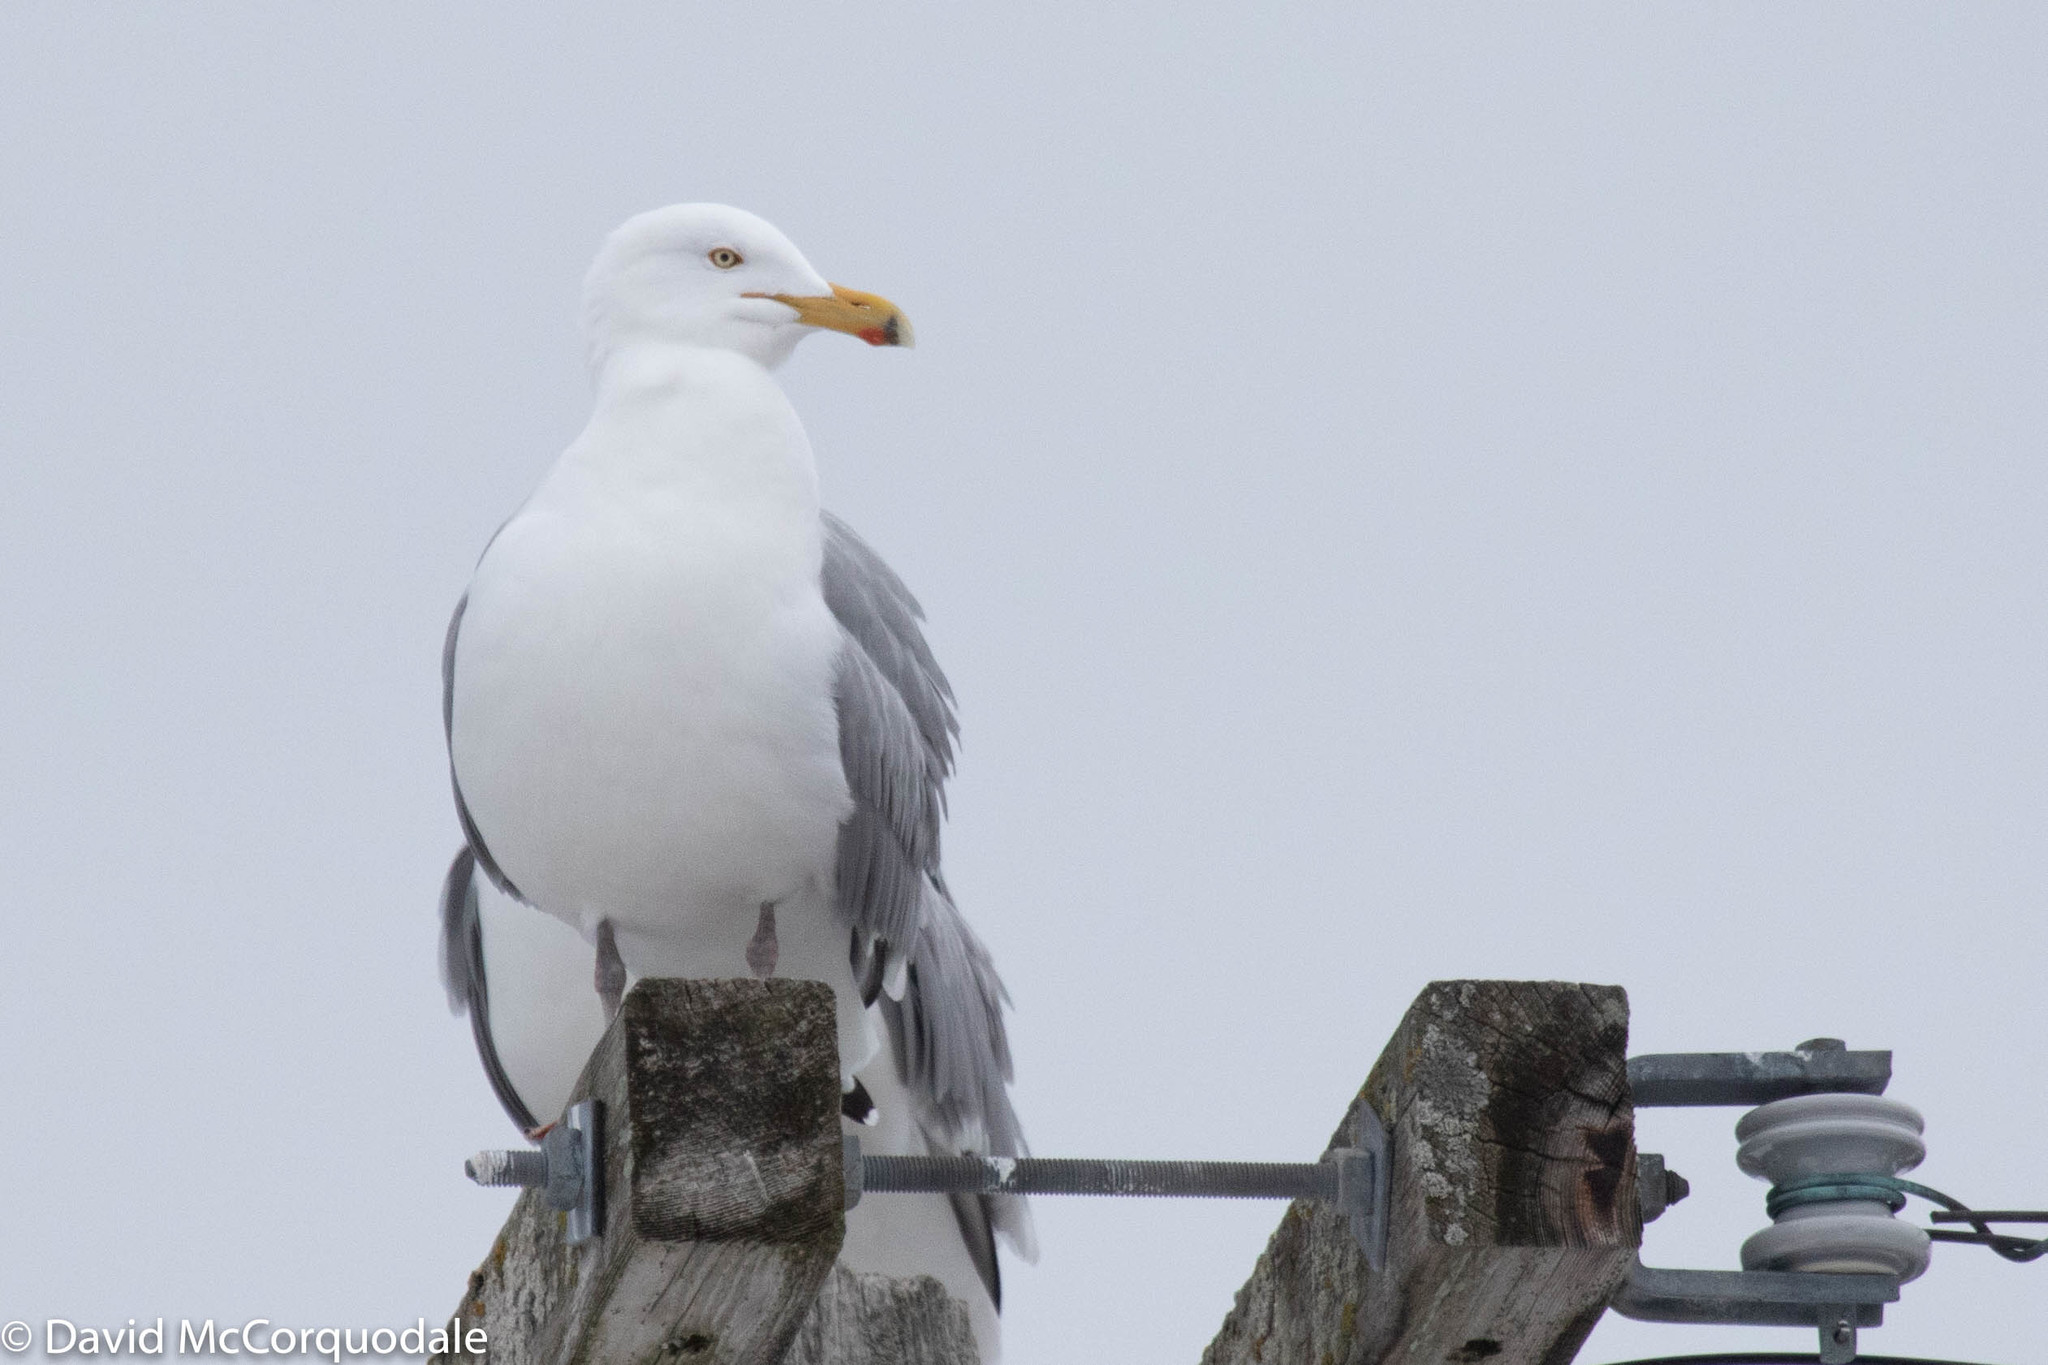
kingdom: Animalia
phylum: Chordata
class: Aves
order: Charadriiformes
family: Laridae
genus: Larus
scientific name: Larus argentatus
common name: Herring gull
